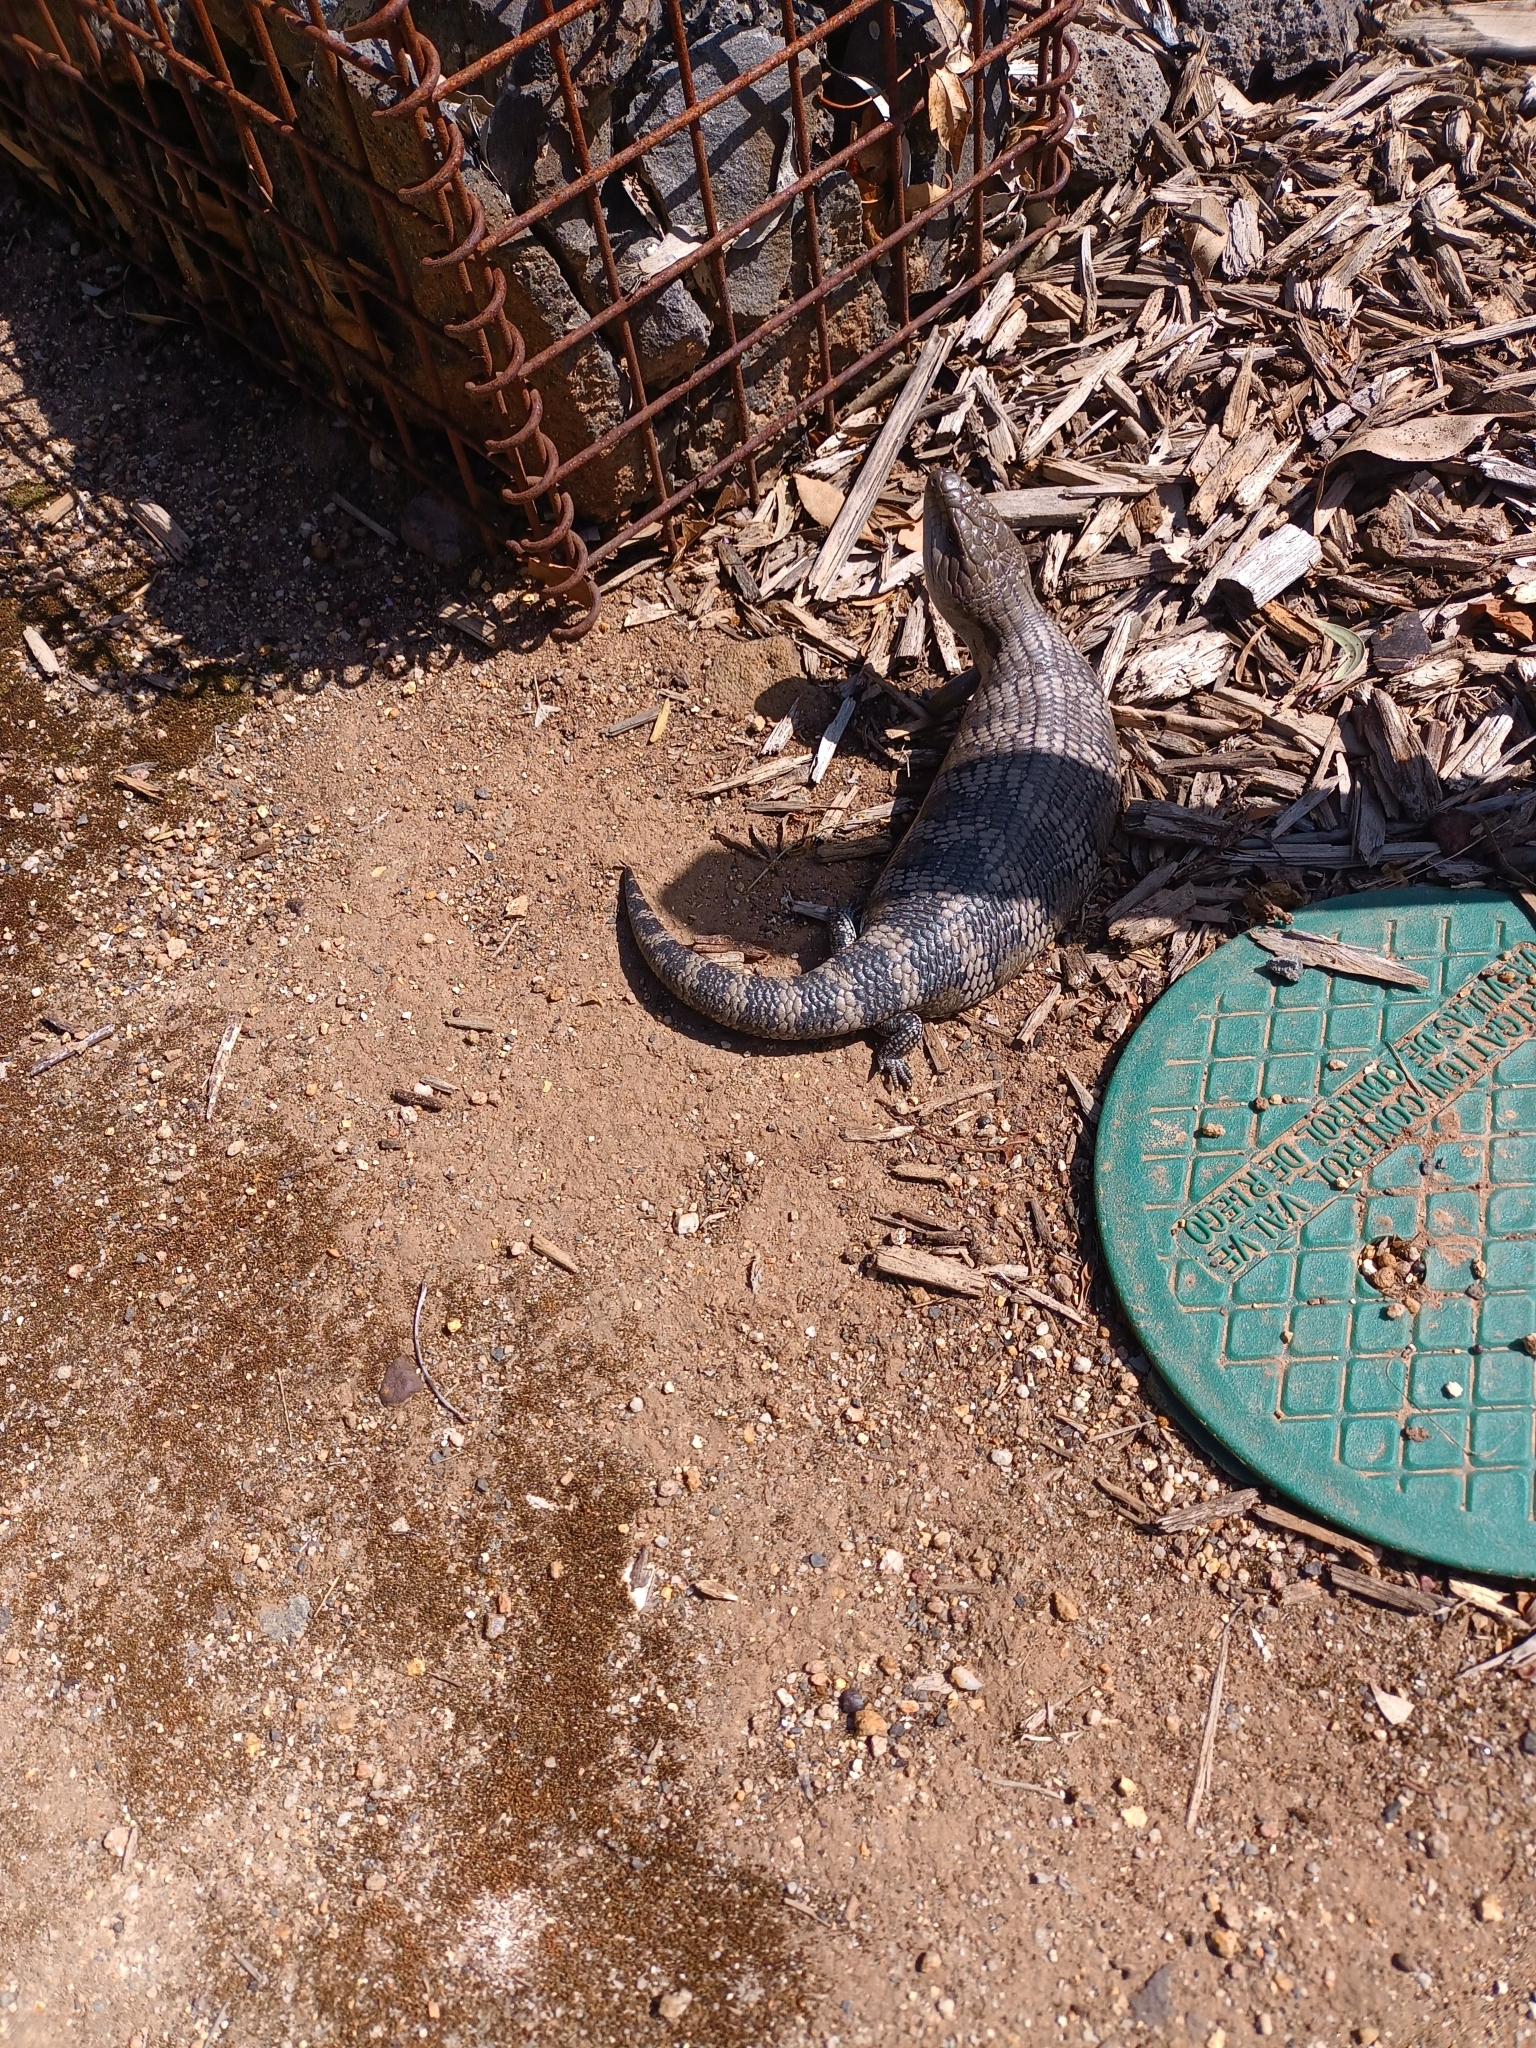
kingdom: Animalia
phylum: Chordata
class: Squamata
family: Scincidae
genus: Tiliqua
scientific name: Tiliqua scincoides
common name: Common bluetongue
